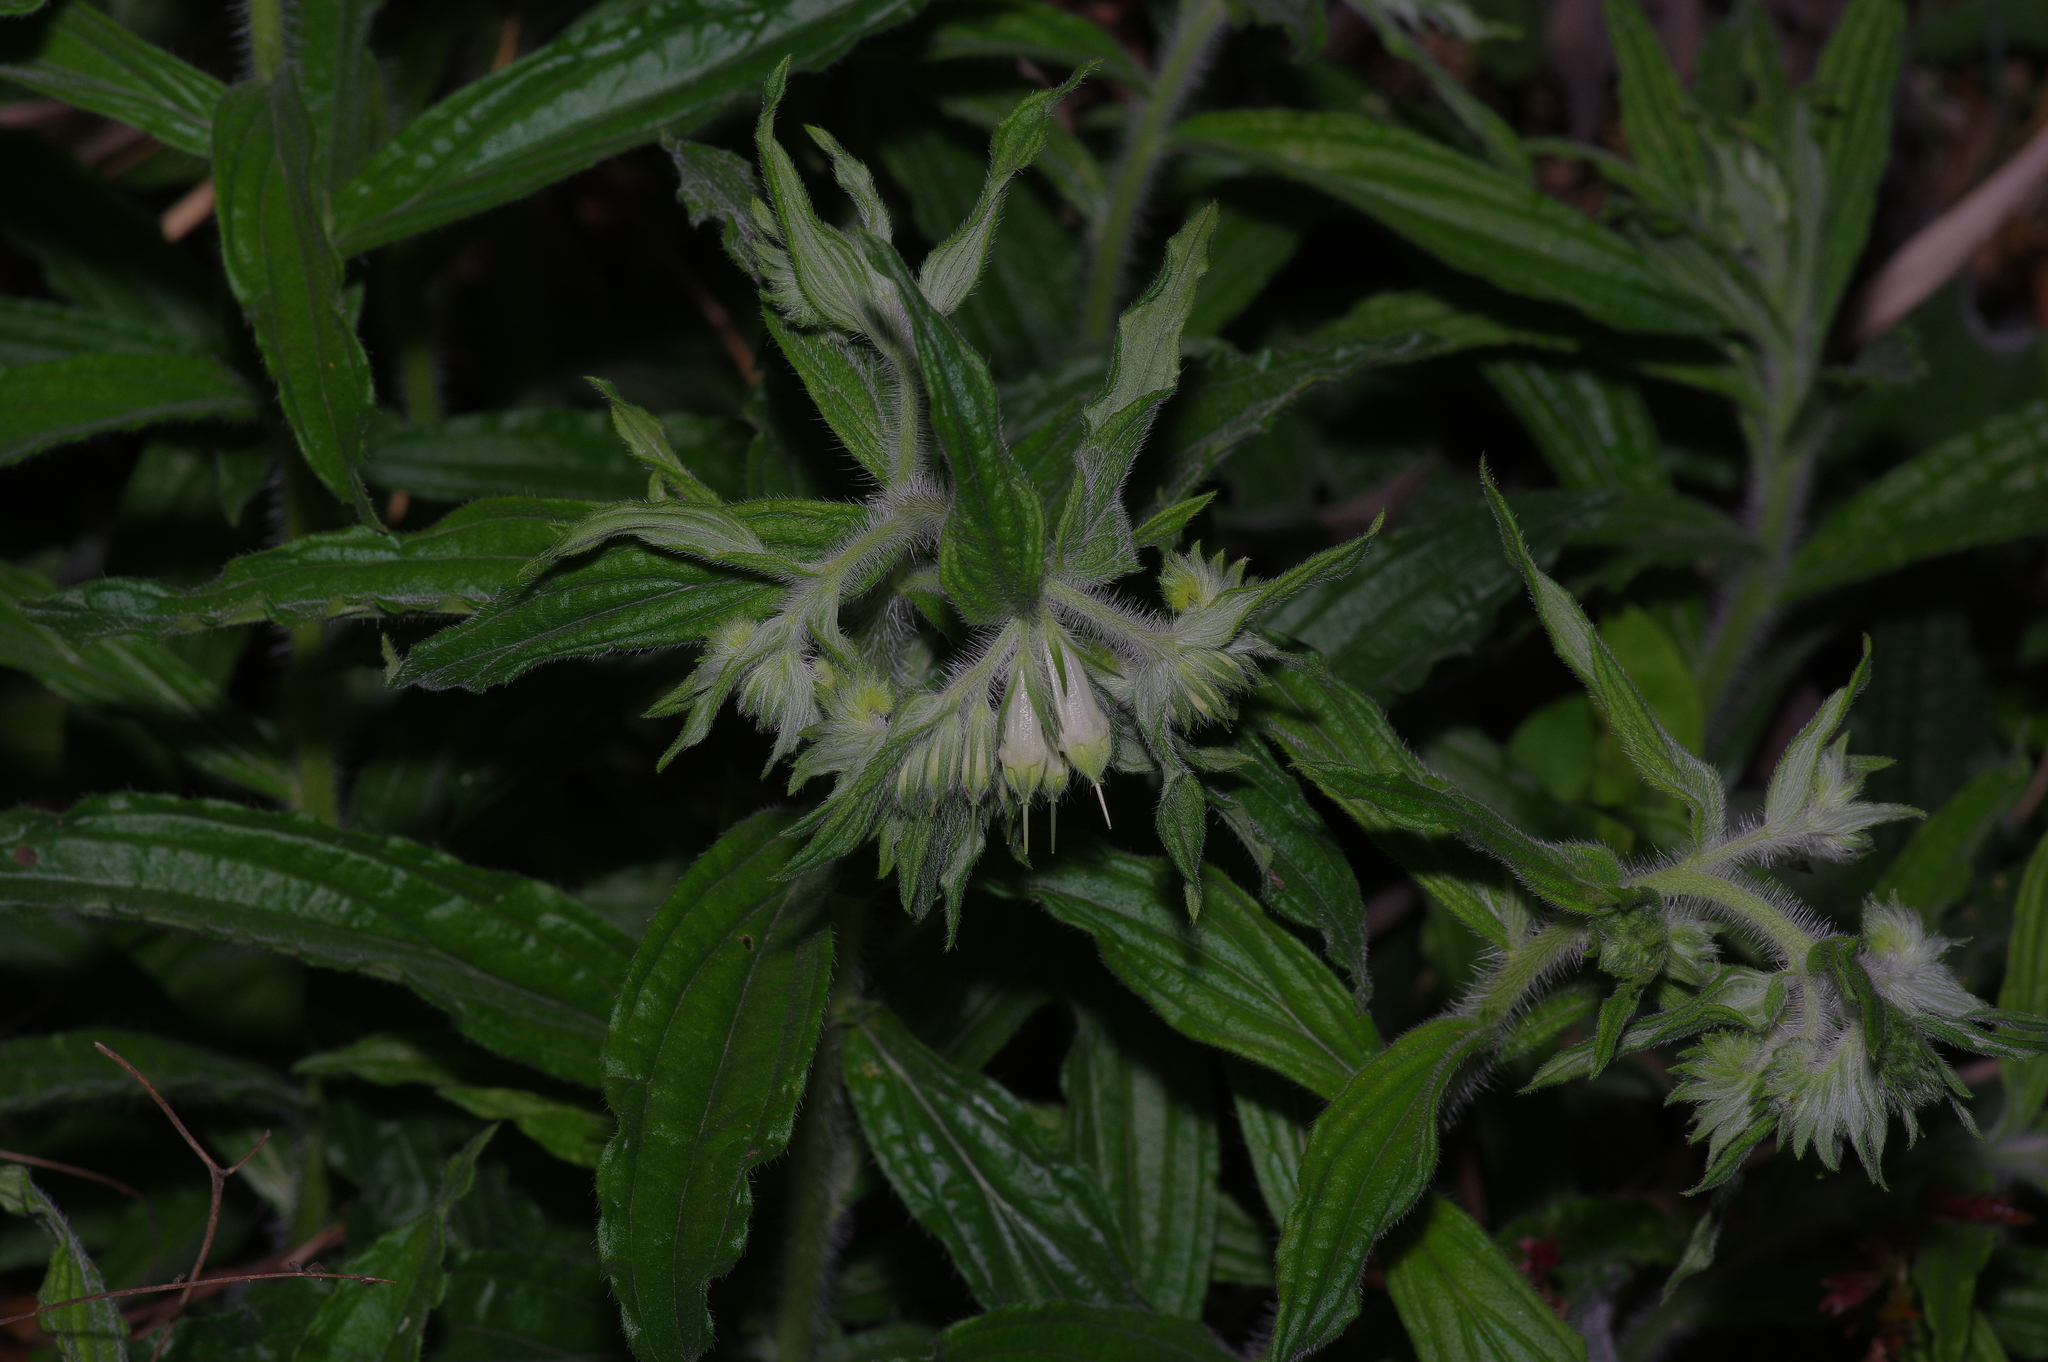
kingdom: Plantae
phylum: Tracheophyta
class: Magnoliopsida
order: Boraginales
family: Boraginaceae
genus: Lithospermum
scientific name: Lithospermum caroliniense
